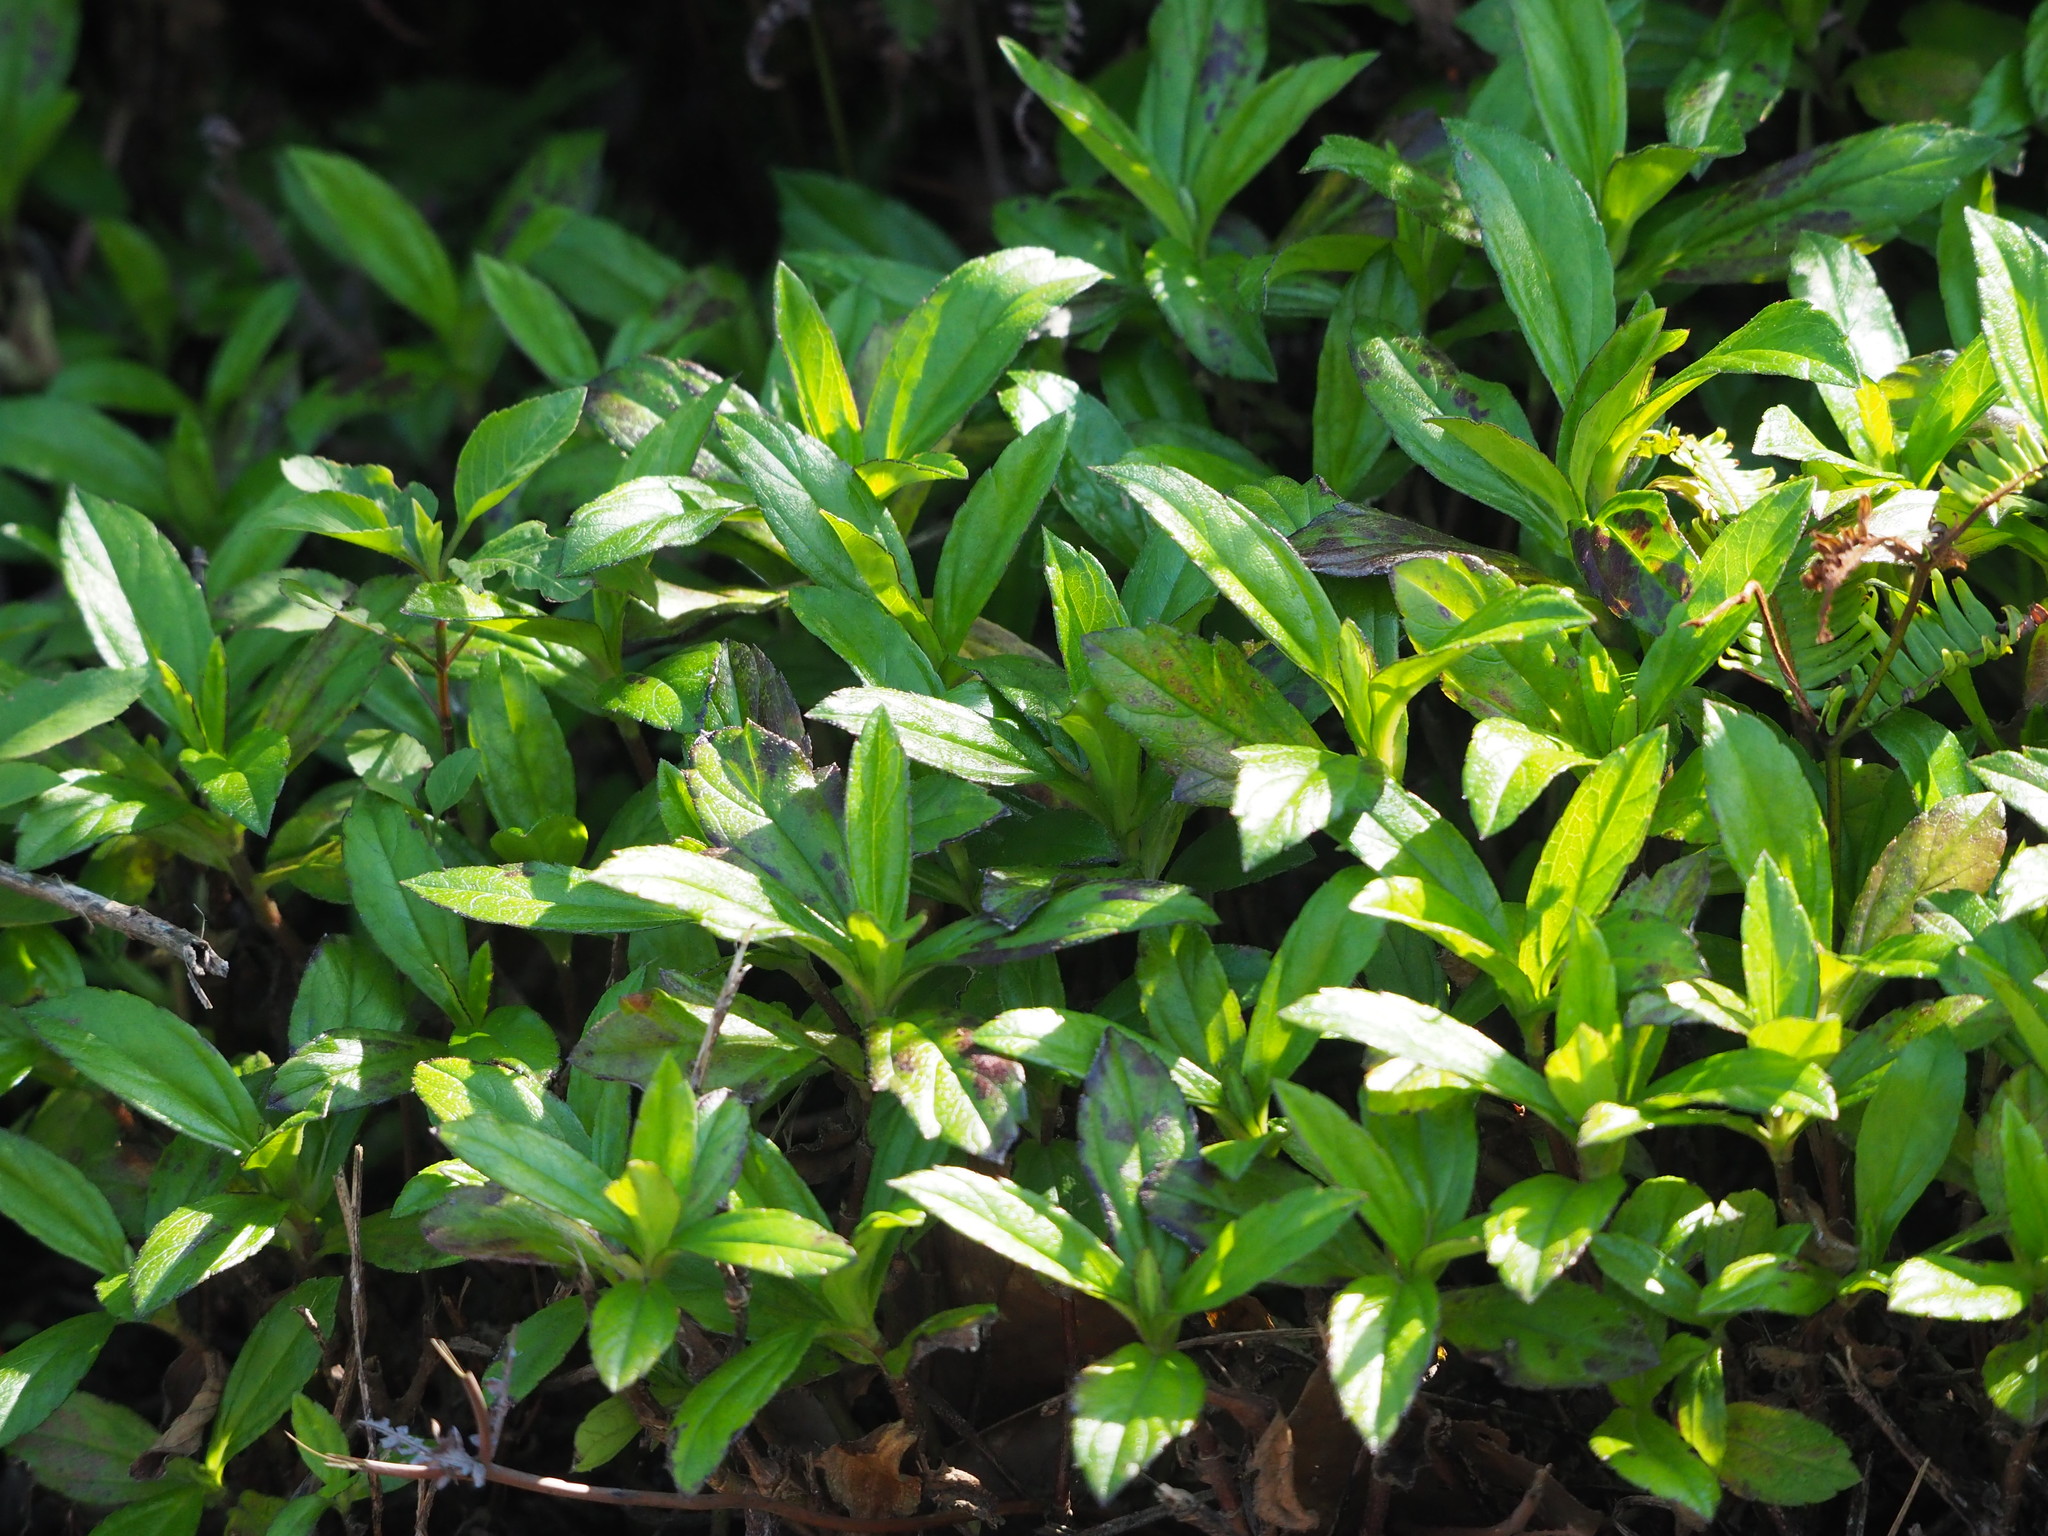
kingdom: Plantae
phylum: Tracheophyta
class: Magnoliopsida
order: Asterales
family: Asteraceae
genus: Sphagneticola
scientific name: Sphagneticola trilobata
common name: Bay biscayne creeping-oxeye
